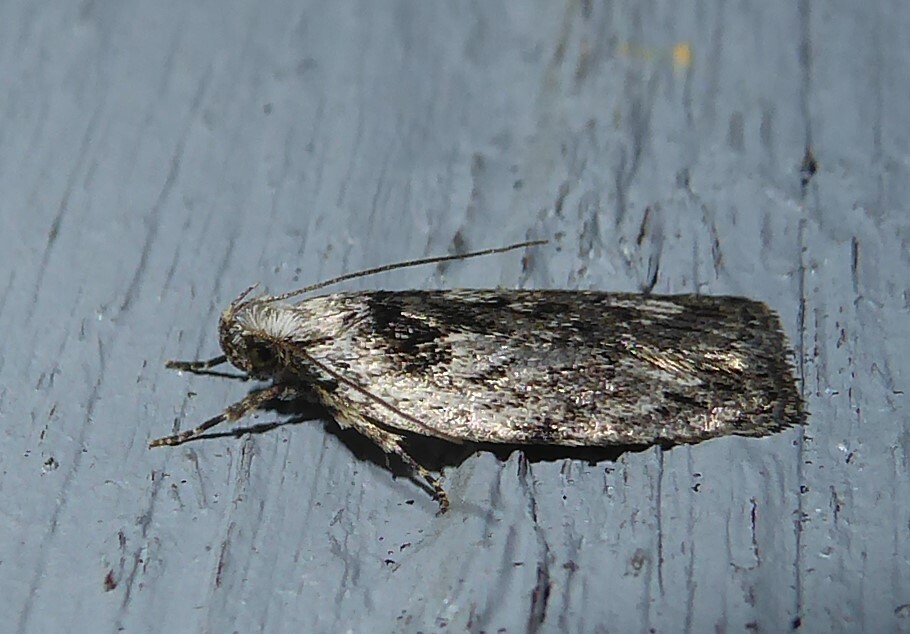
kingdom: Animalia
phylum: Arthropoda
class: Insecta
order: Lepidoptera
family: Depressariidae
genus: Phaeosaces
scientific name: Phaeosaces compsotypa
